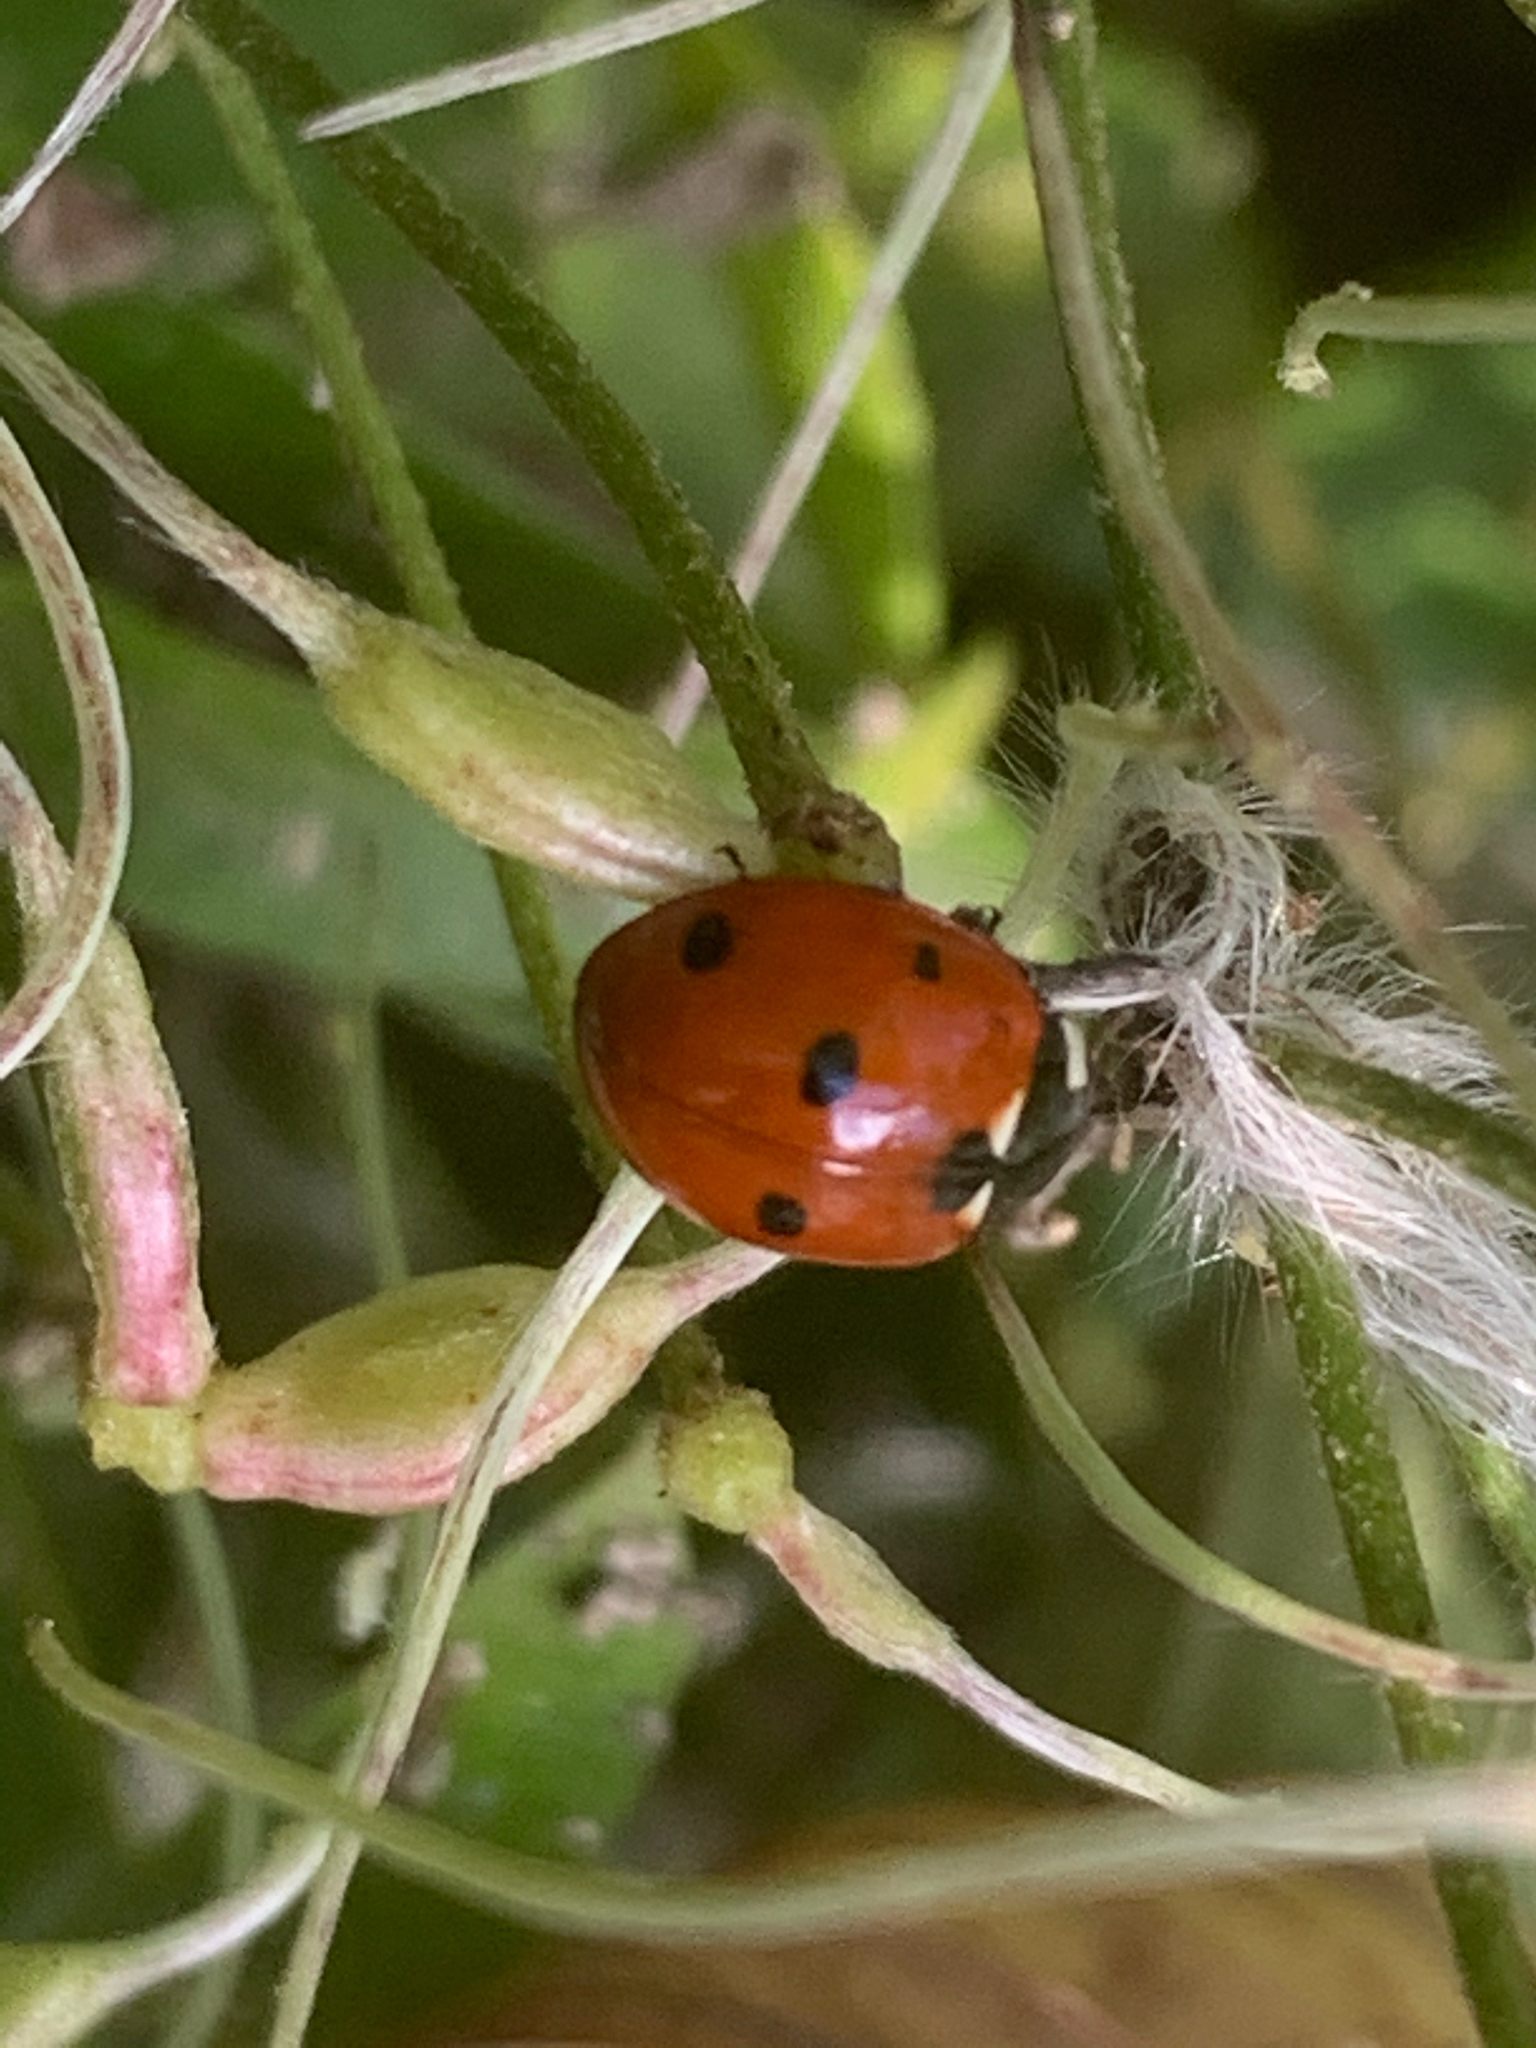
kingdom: Animalia
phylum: Arthropoda
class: Insecta
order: Coleoptera
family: Coccinellidae
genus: Coccinella
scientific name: Coccinella septempunctata
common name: Sevenspotted lady beetle
